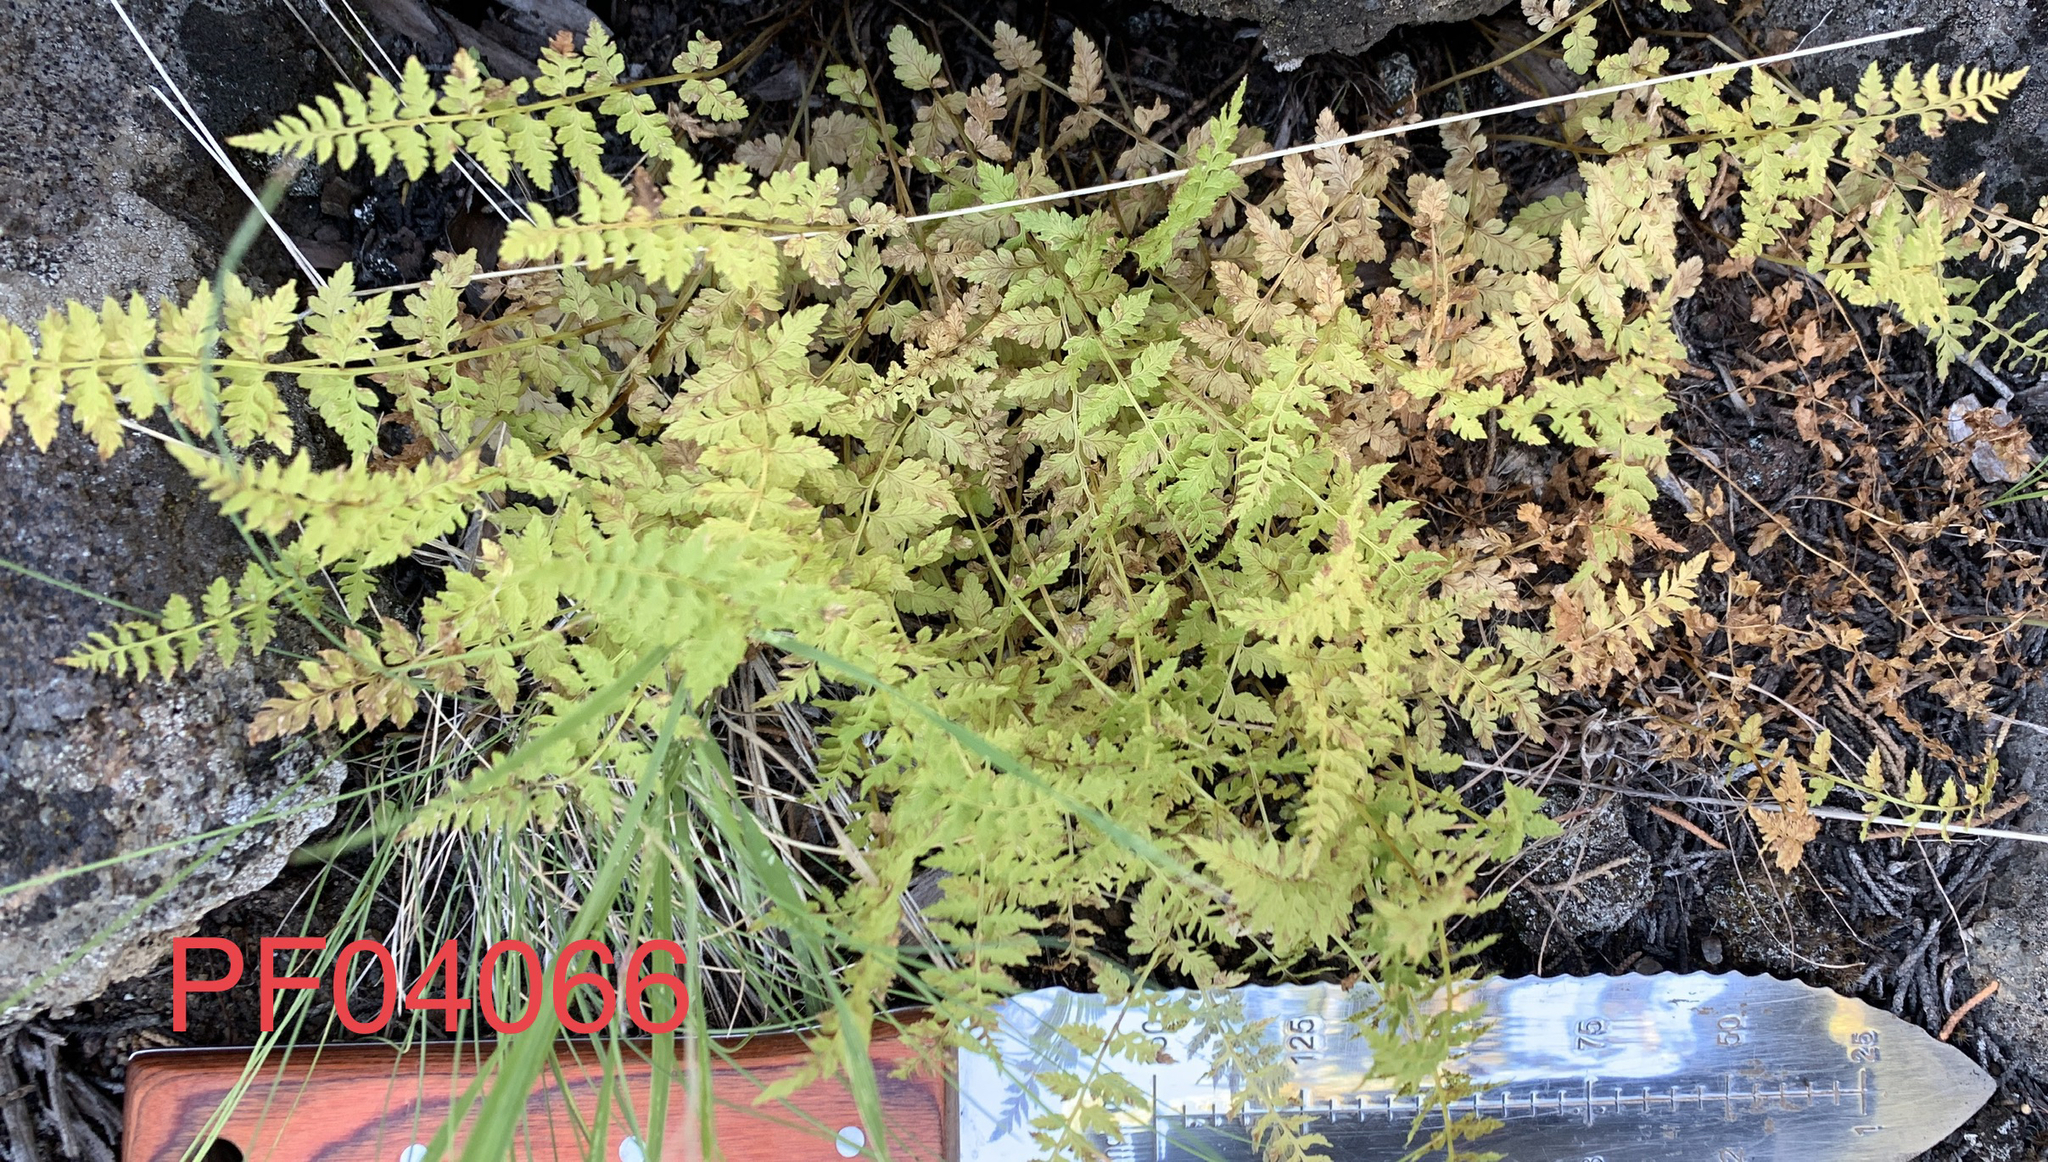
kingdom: Plantae
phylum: Tracheophyta
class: Polypodiopsida
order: Polypodiales
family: Cystopteridaceae
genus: Cystopteris
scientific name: Cystopteris fragilis
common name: Brittle bladder fern
